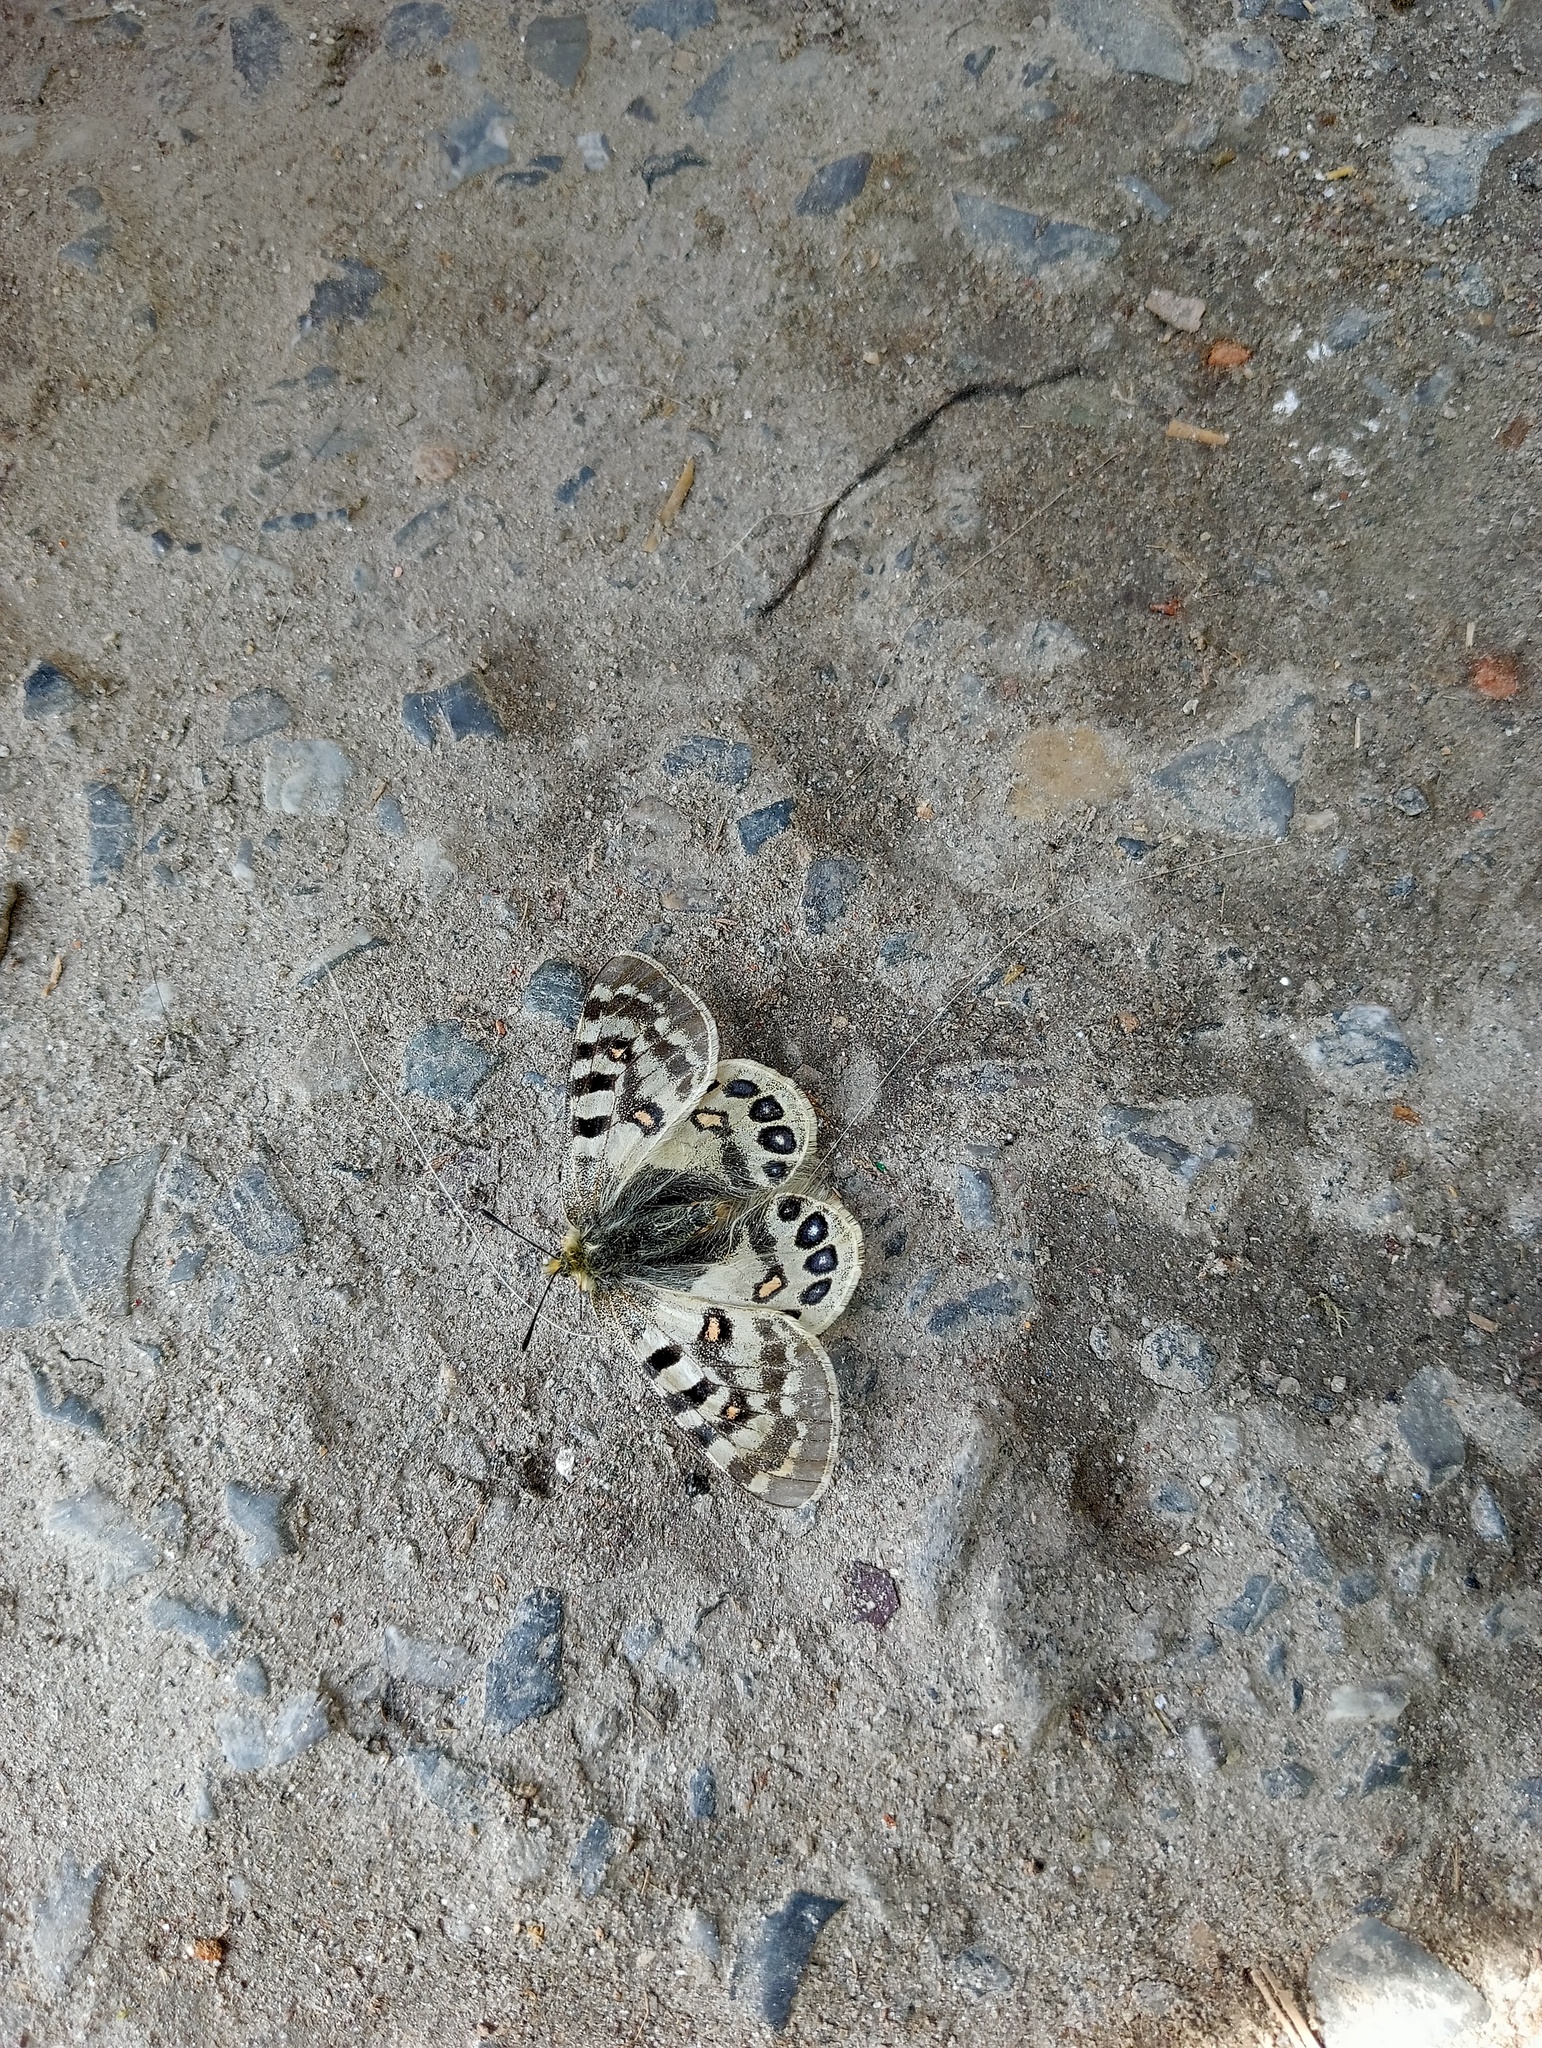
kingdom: Animalia
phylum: Arthropoda
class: Insecta
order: Lepidoptera
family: Papilionidae
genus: Parnassius
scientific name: Parnassius hardwickii
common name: Common blue apollo
